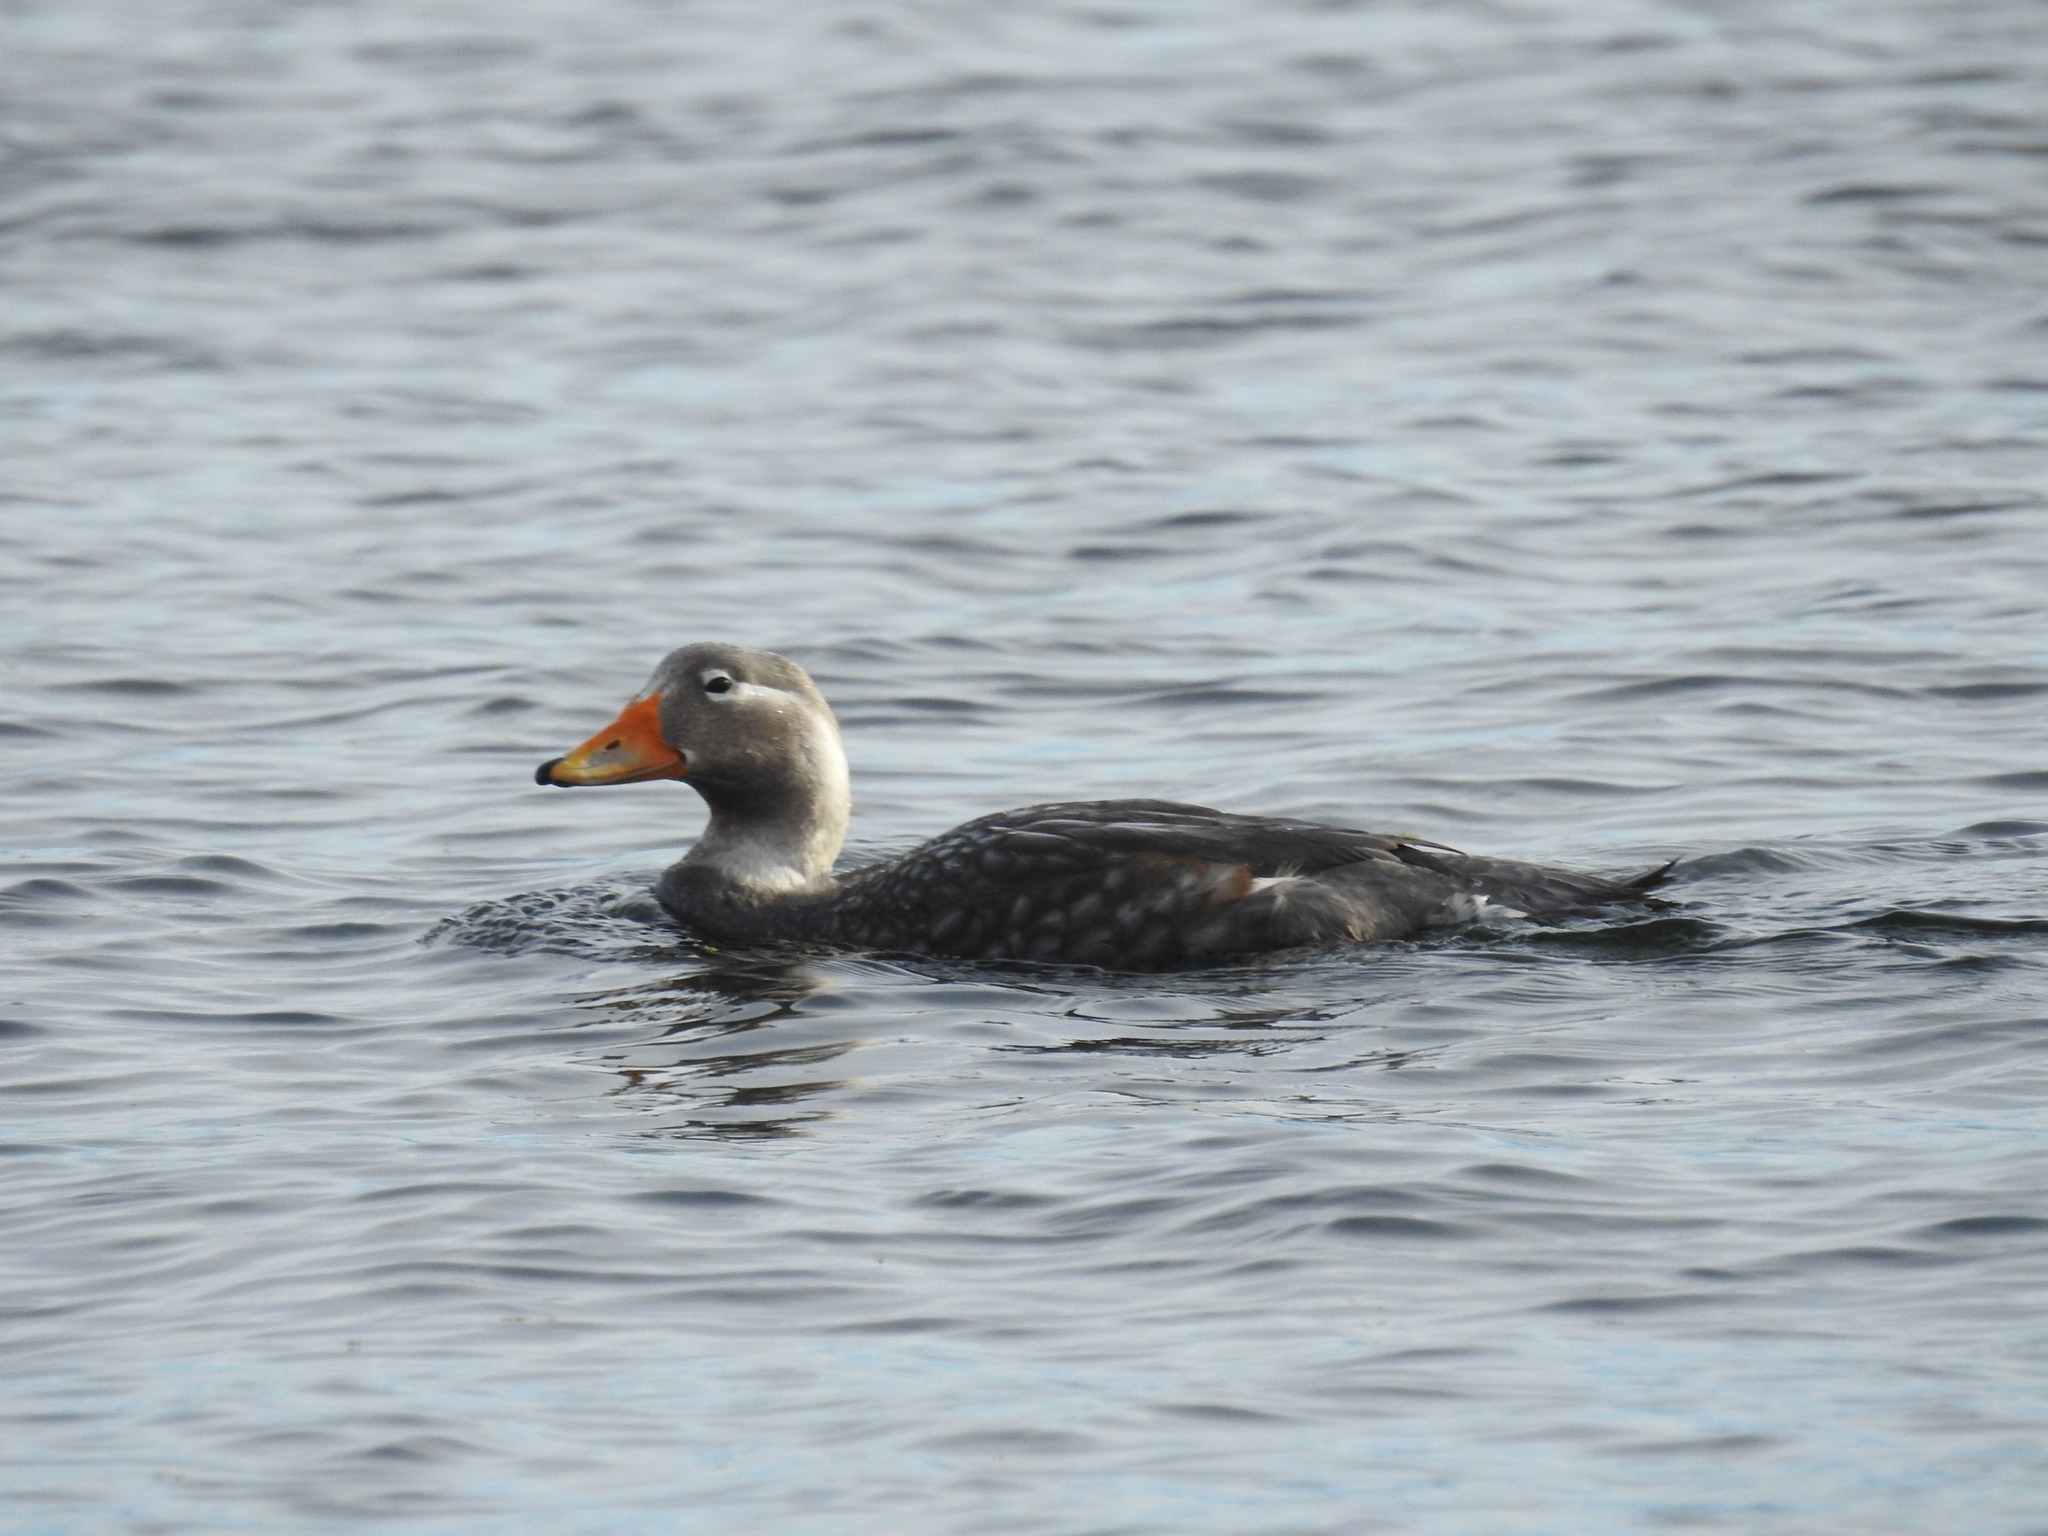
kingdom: Animalia
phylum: Chordata
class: Aves
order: Anseriformes
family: Anatidae
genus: Tachyeres
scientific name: Tachyeres patachonicus
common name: Flying steamer duck
